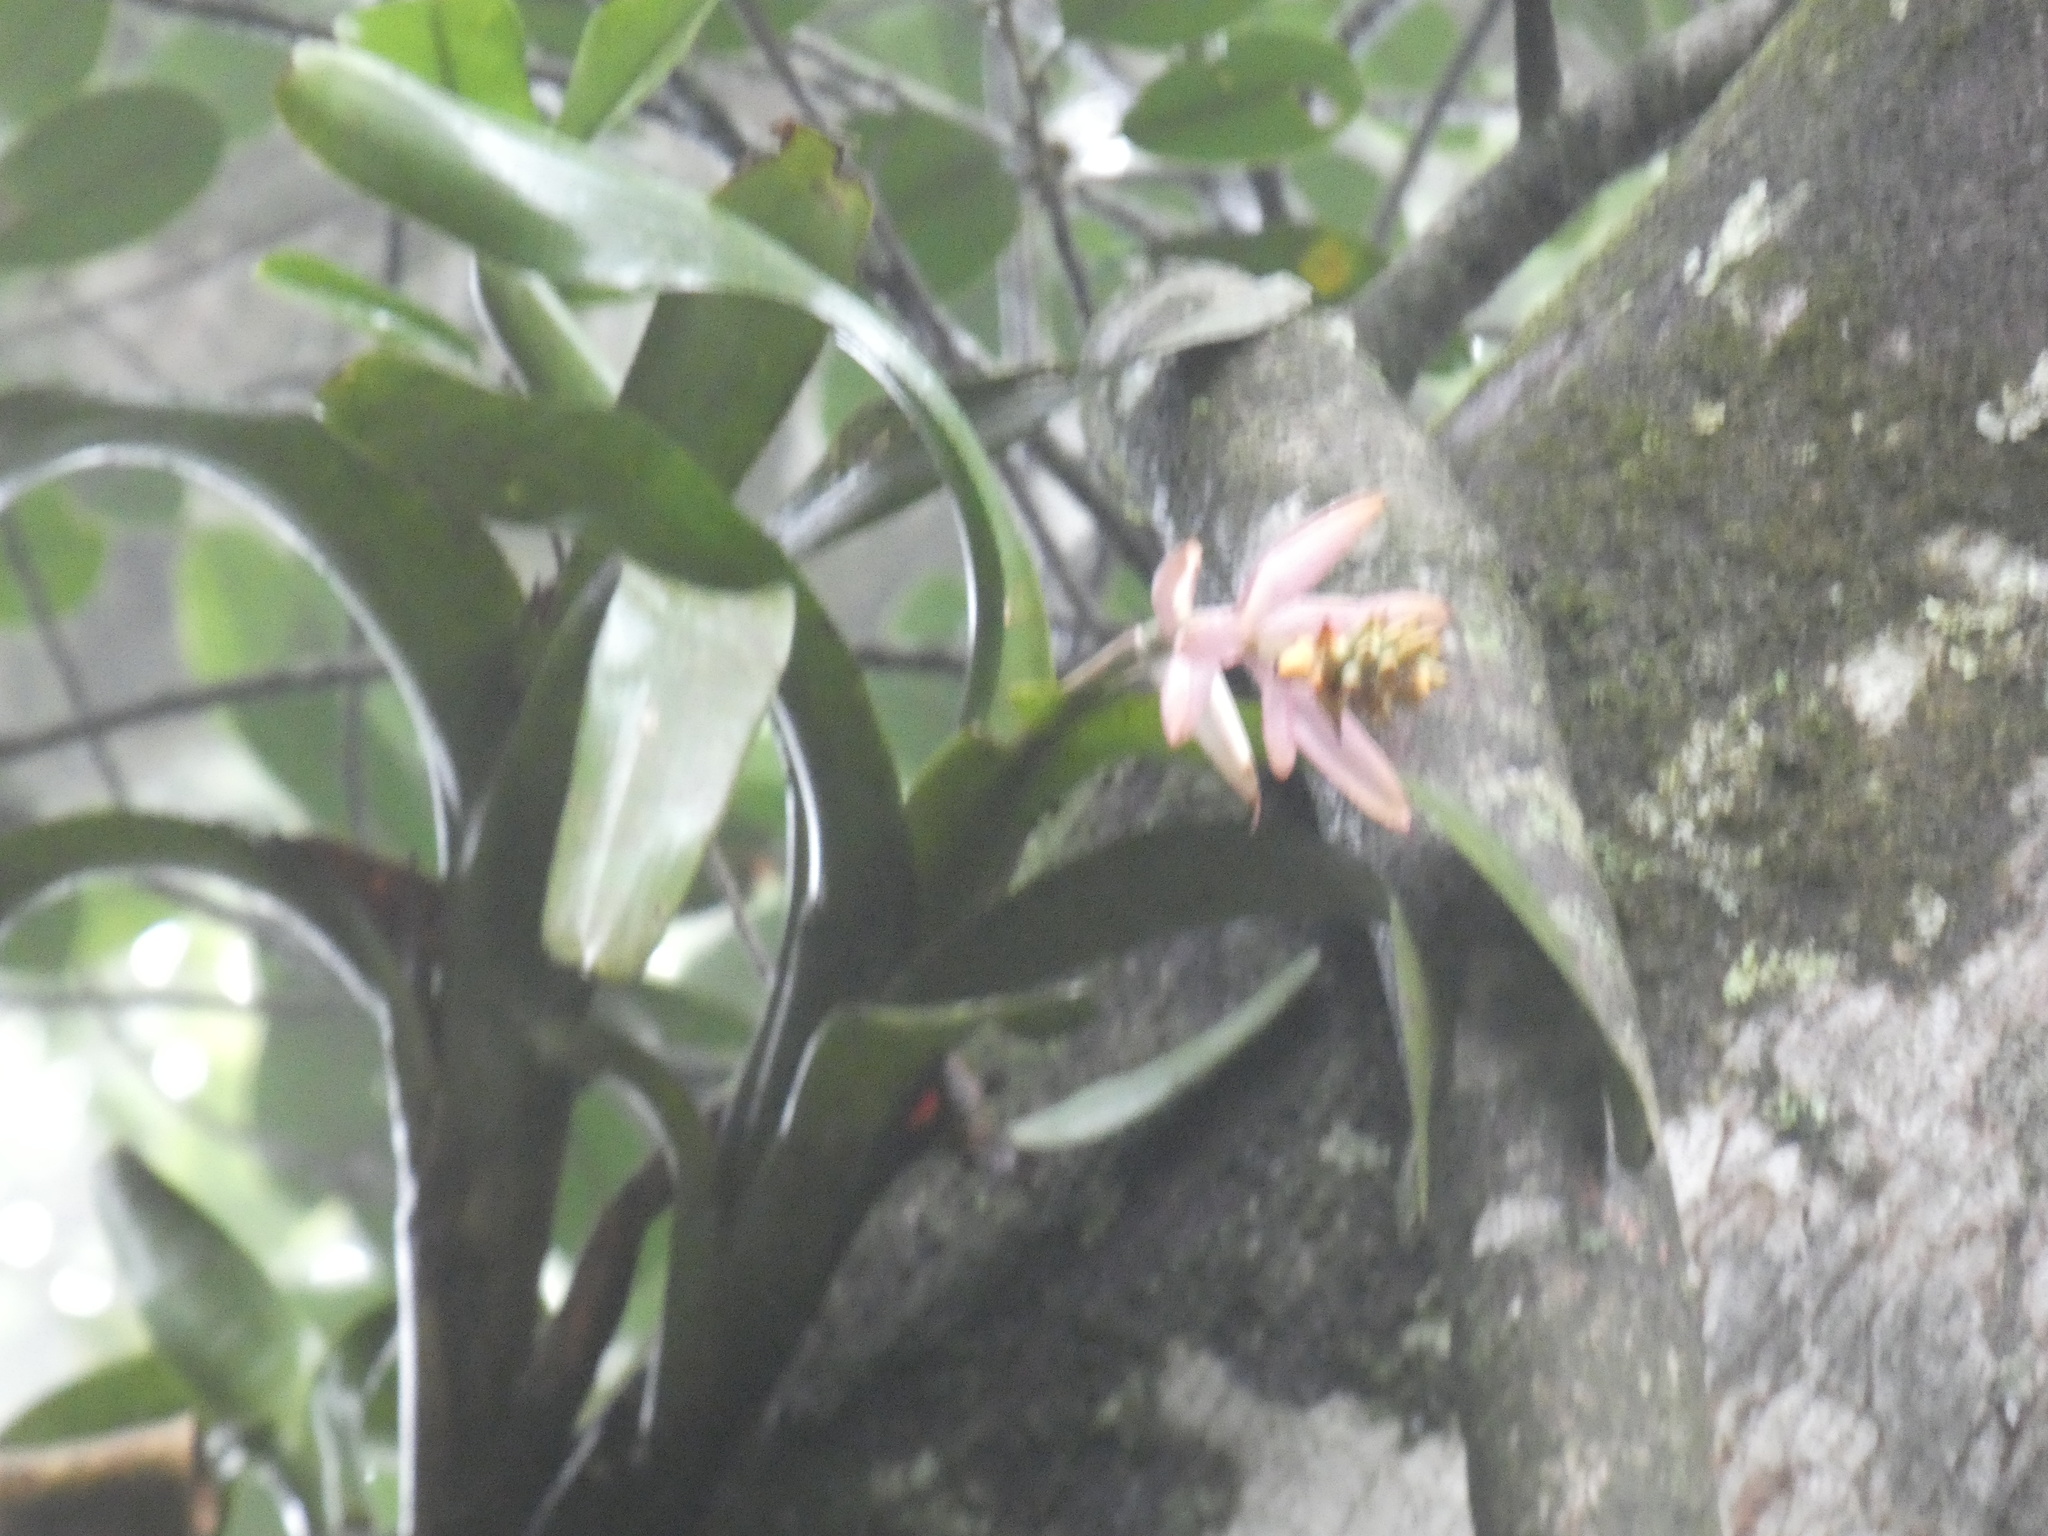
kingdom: Plantae
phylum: Tracheophyta
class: Liliopsida
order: Poales
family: Bromeliaceae
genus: Aechmea
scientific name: Aechmea nudicaulis
